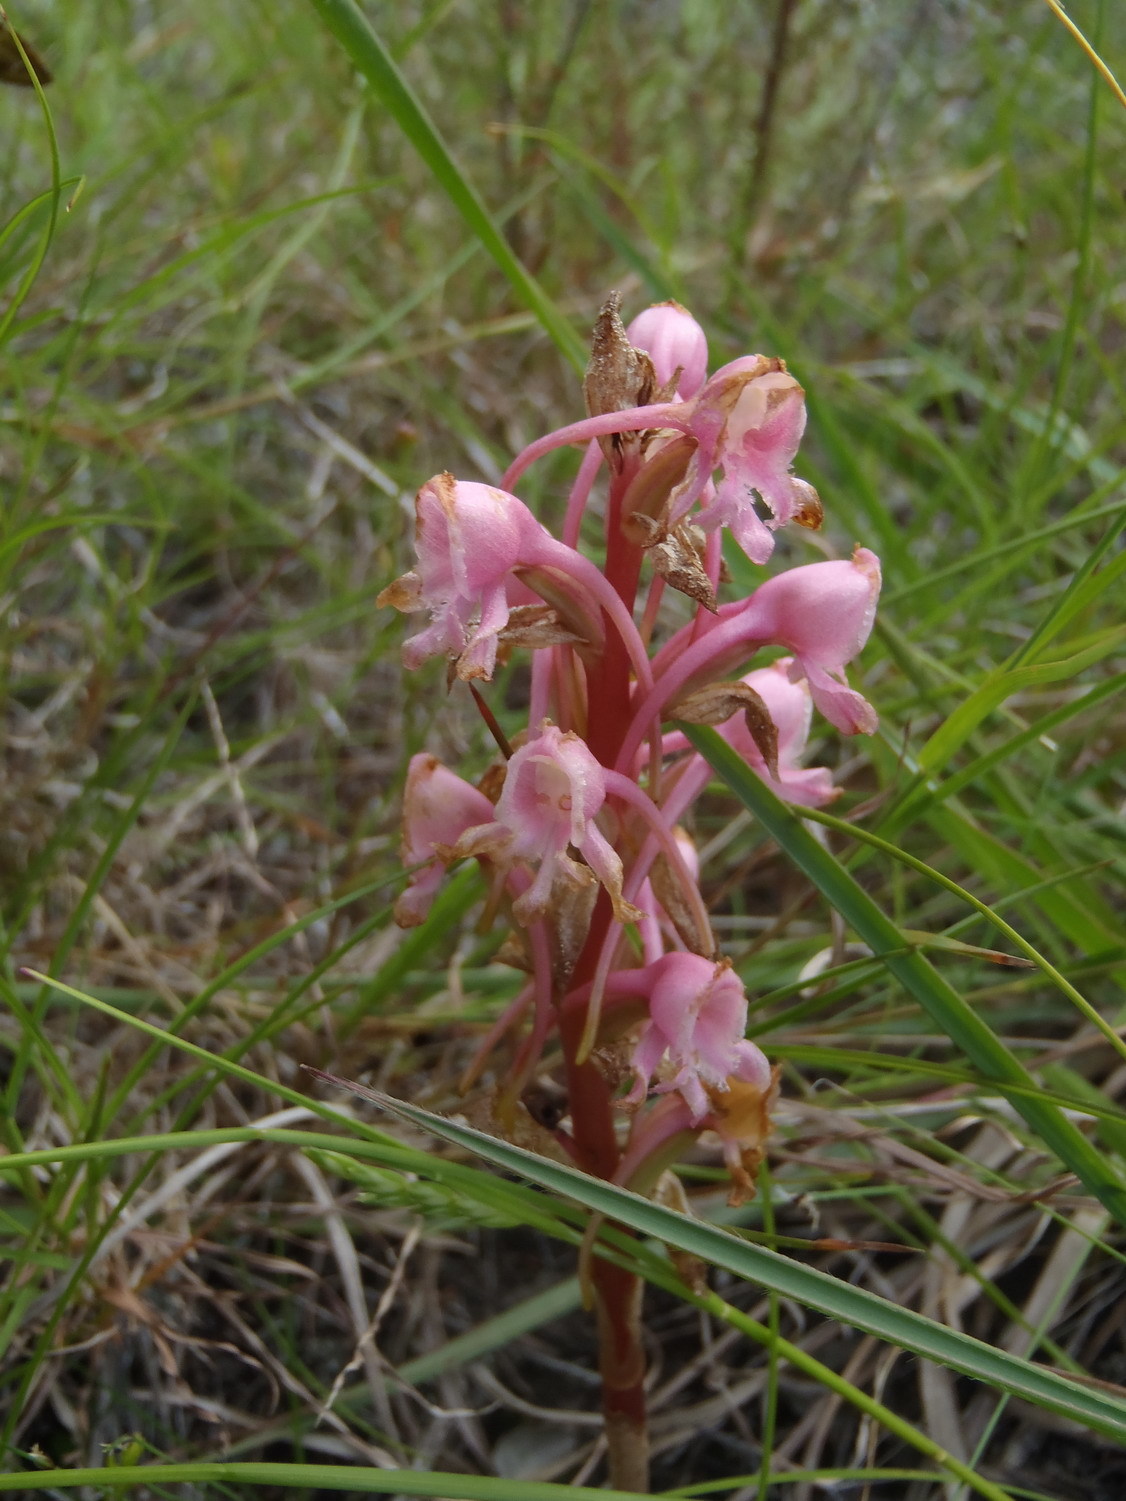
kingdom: Plantae
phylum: Tracheophyta
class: Liliopsida
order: Asparagales
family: Orchidaceae
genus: Satyrium
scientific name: Satyrium membranaceum
